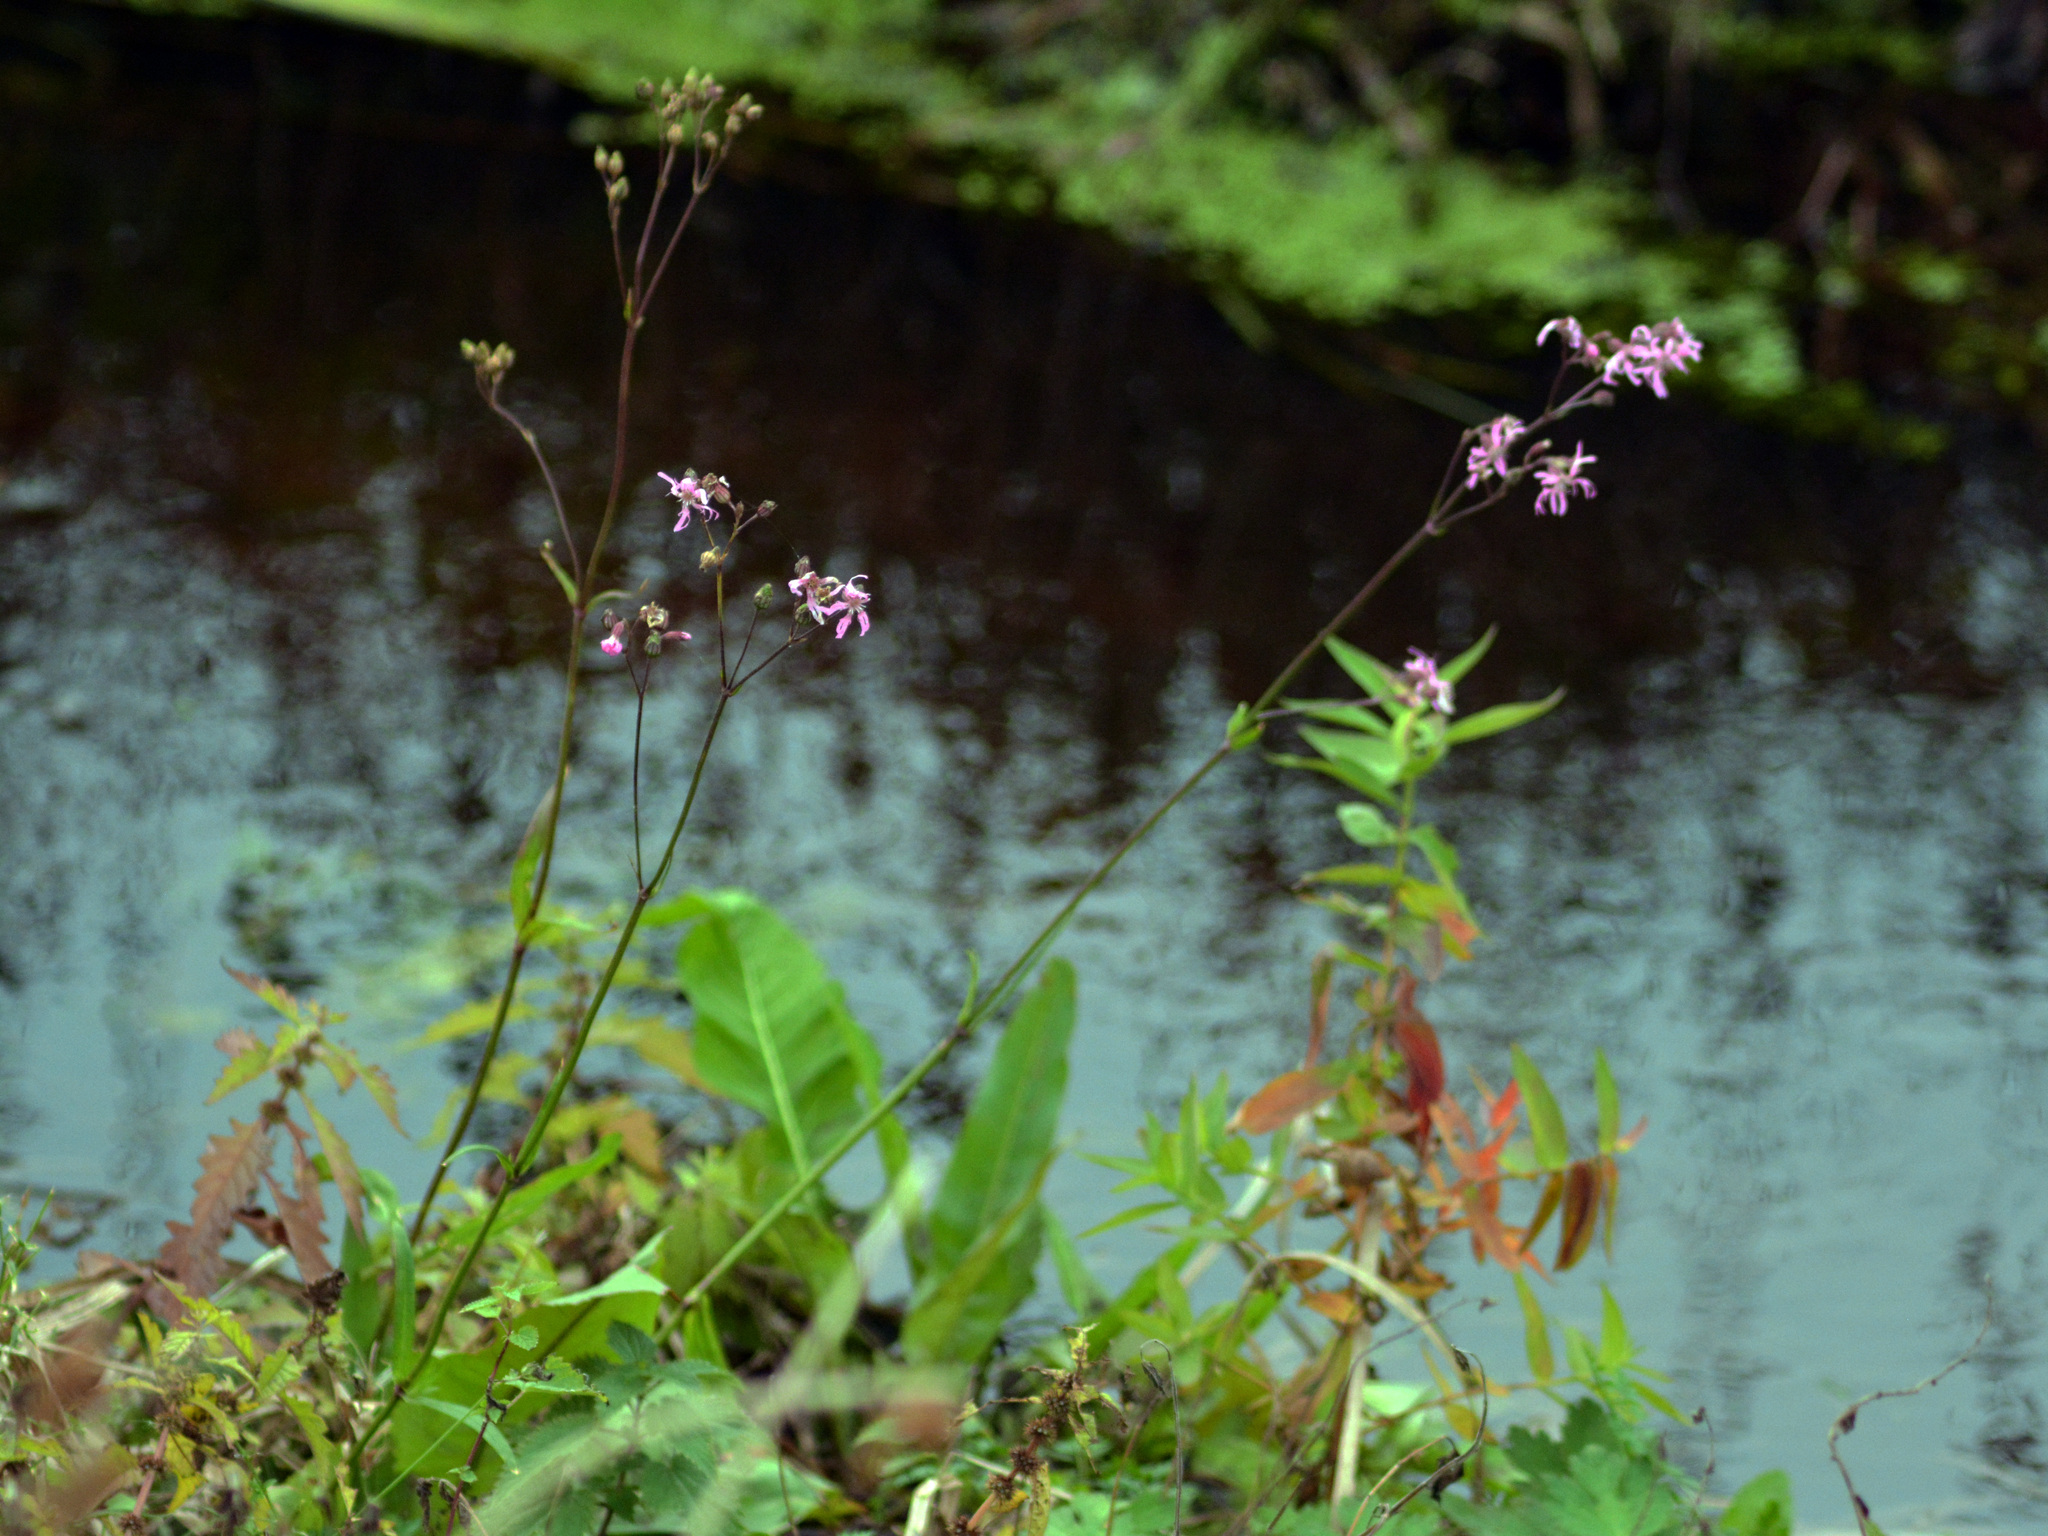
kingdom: Plantae
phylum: Tracheophyta
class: Magnoliopsida
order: Caryophyllales
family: Caryophyllaceae
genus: Silene
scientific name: Silene flos-cuculi
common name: Ragged-robin
